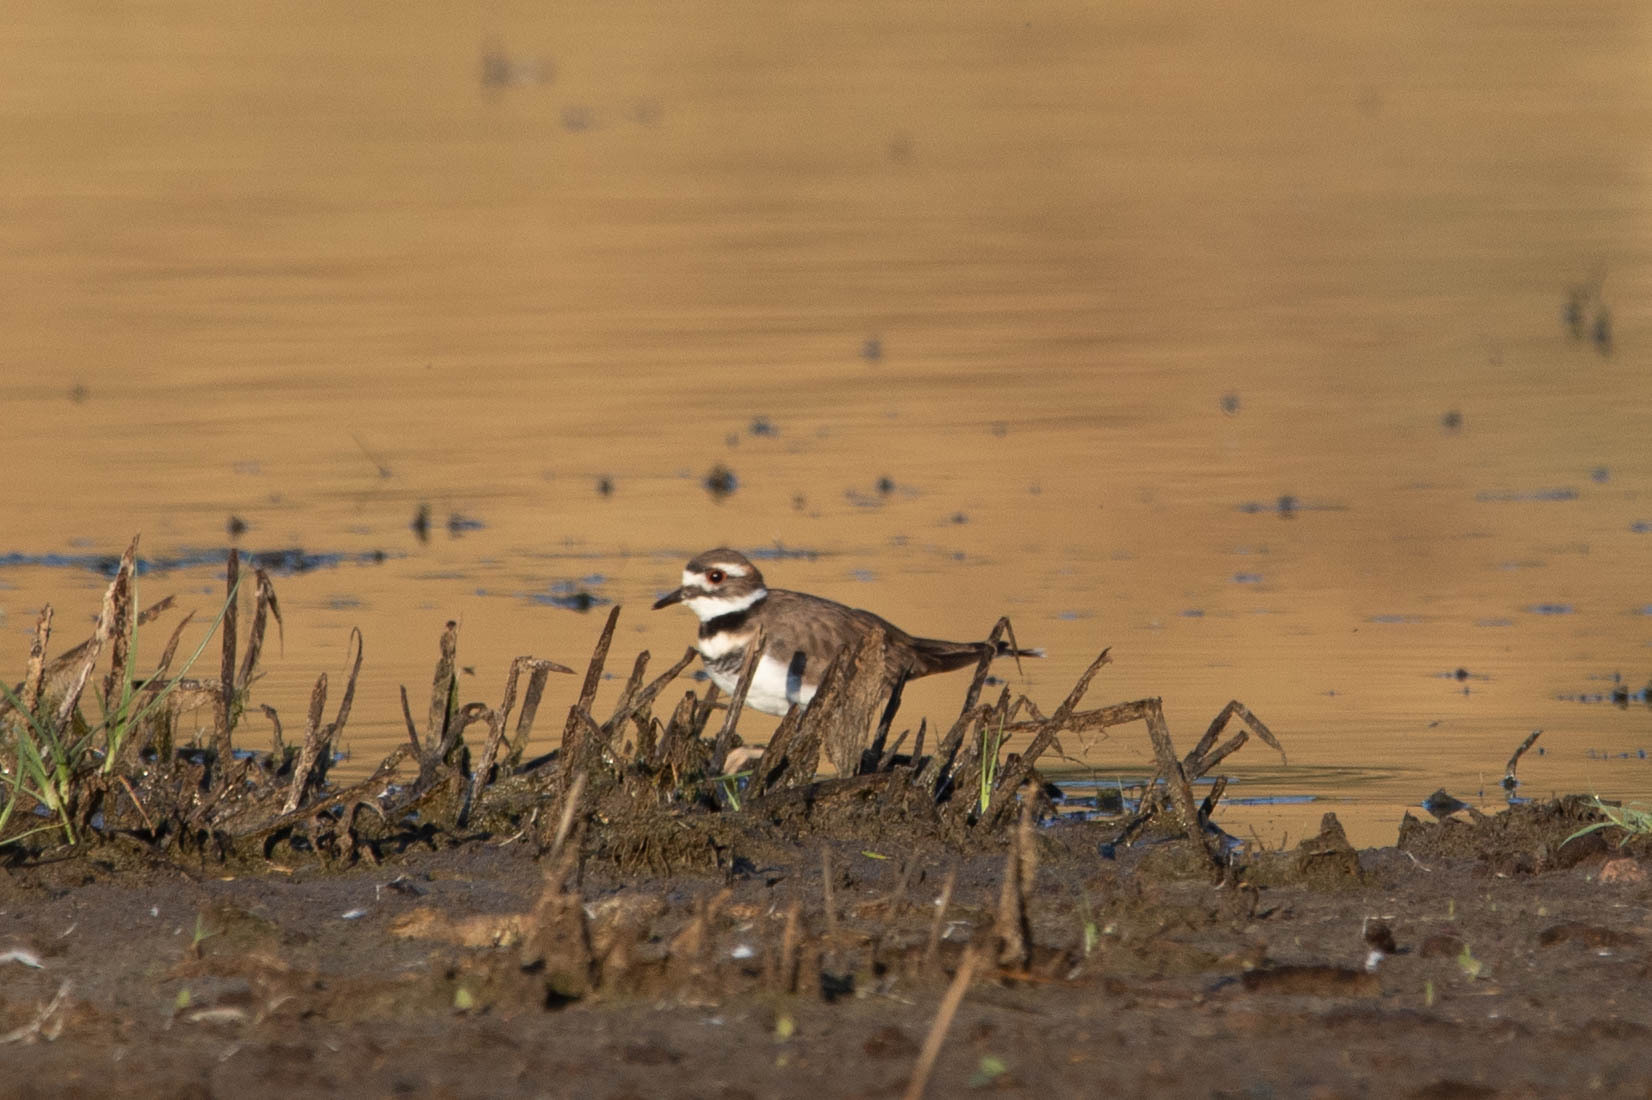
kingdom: Animalia
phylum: Chordata
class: Aves
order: Charadriiformes
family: Charadriidae
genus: Charadrius
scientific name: Charadrius vociferus
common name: Killdeer
